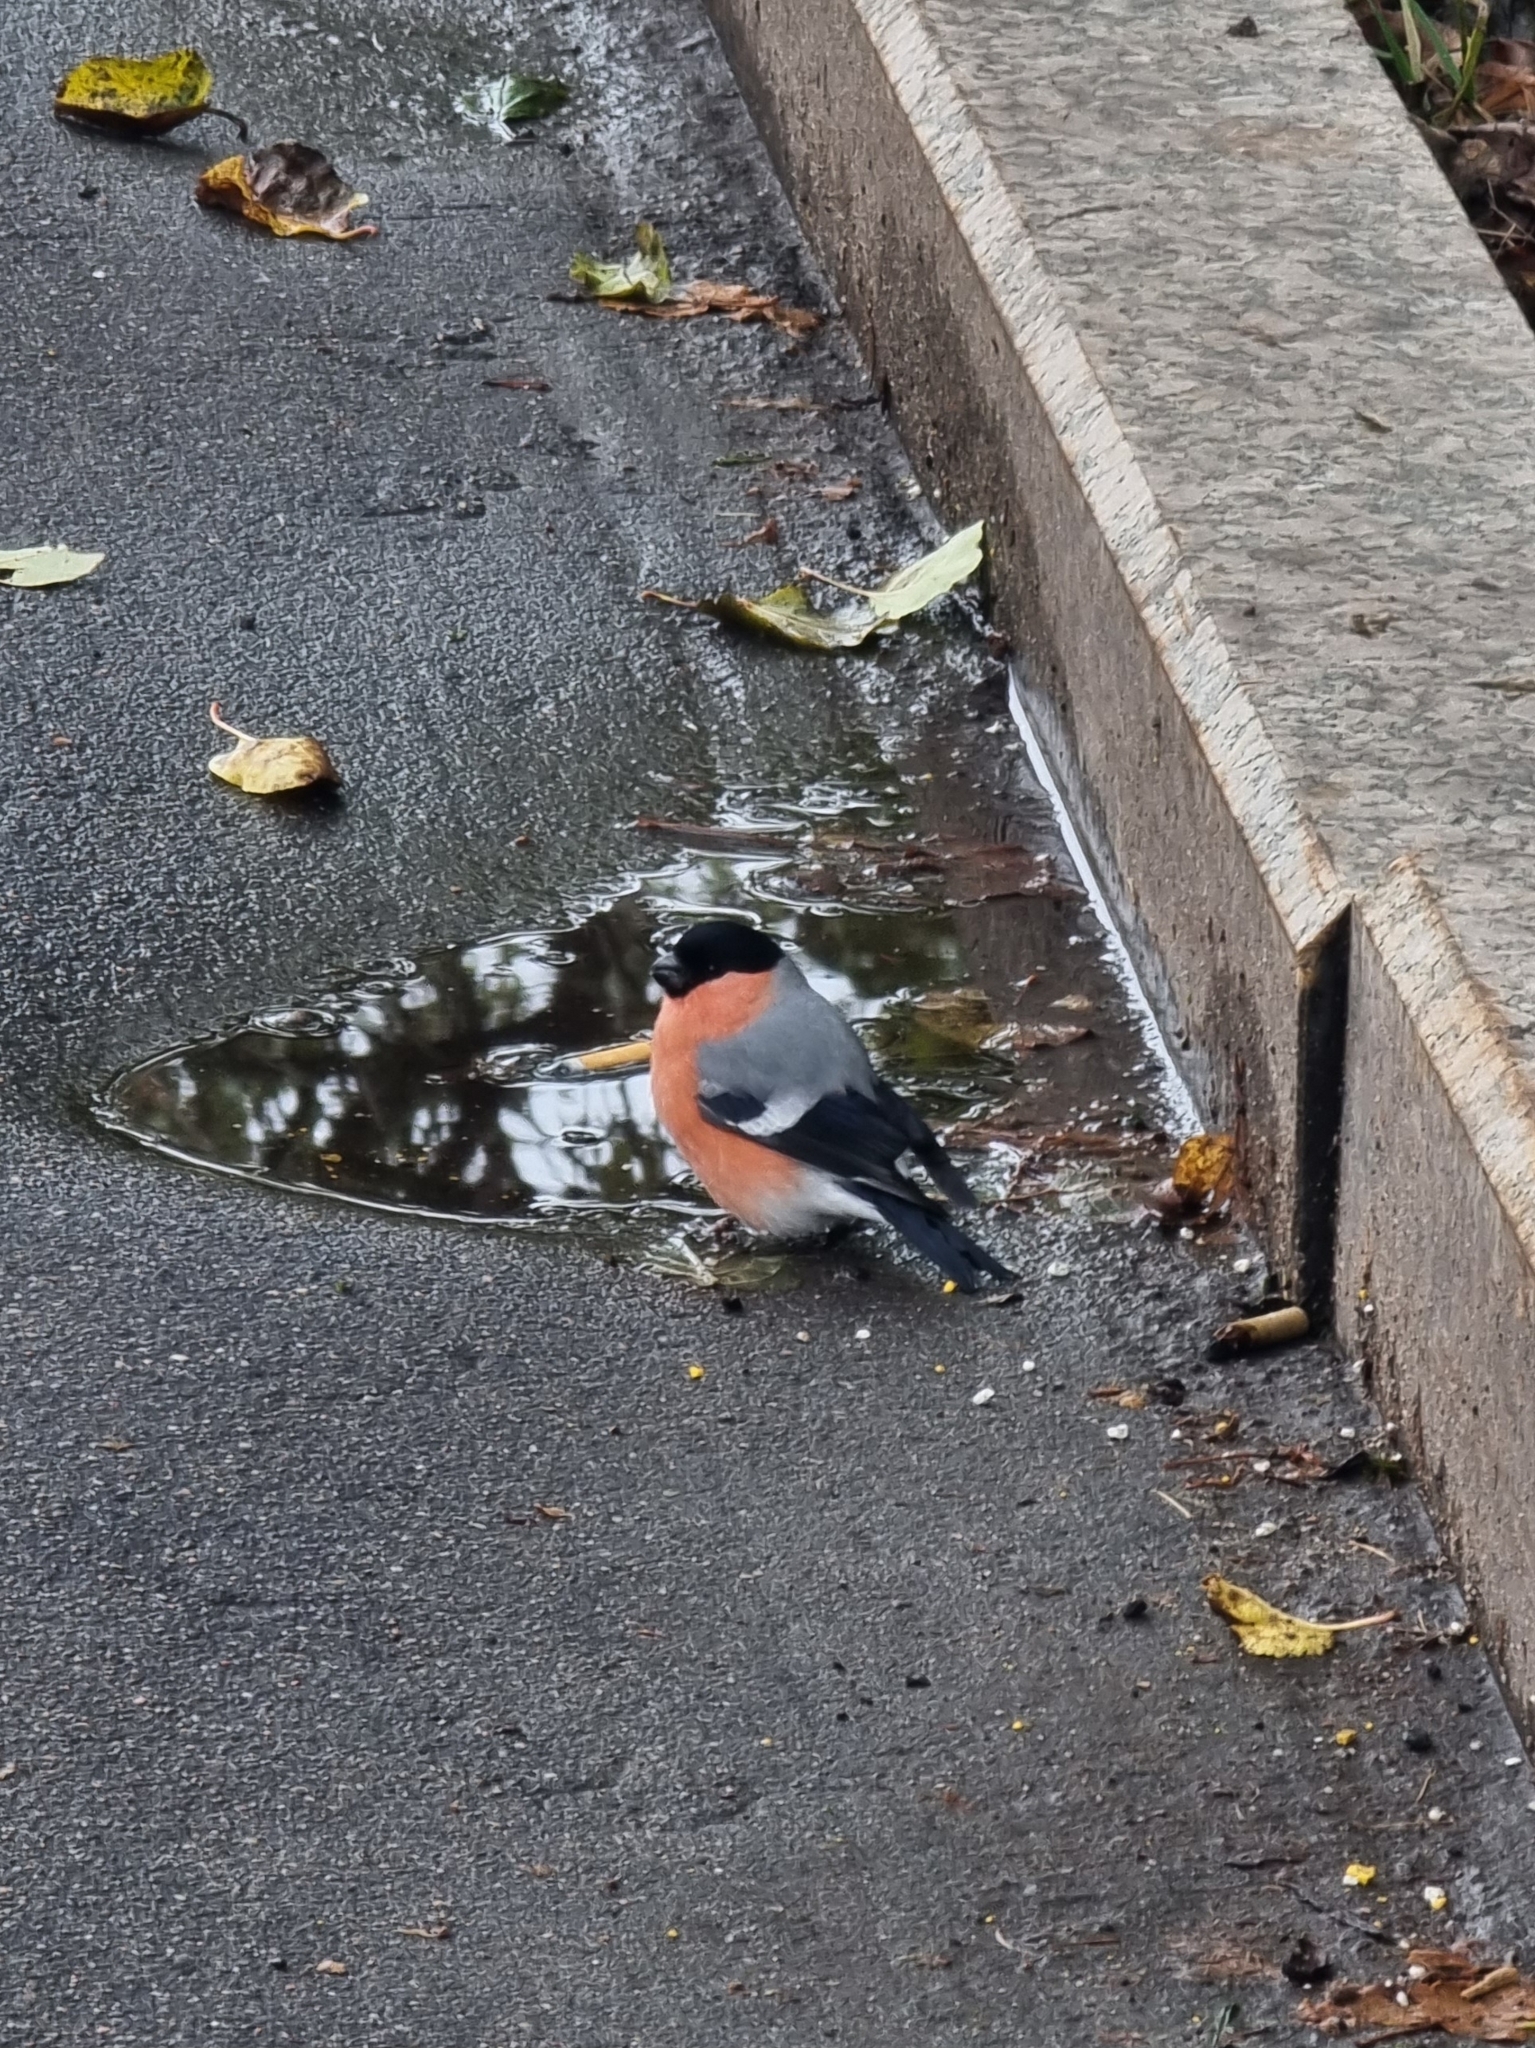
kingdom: Animalia
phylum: Chordata
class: Aves
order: Passeriformes
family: Fringillidae
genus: Pyrrhula
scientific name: Pyrrhula pyrrhula
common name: Eurasian bullfinch
